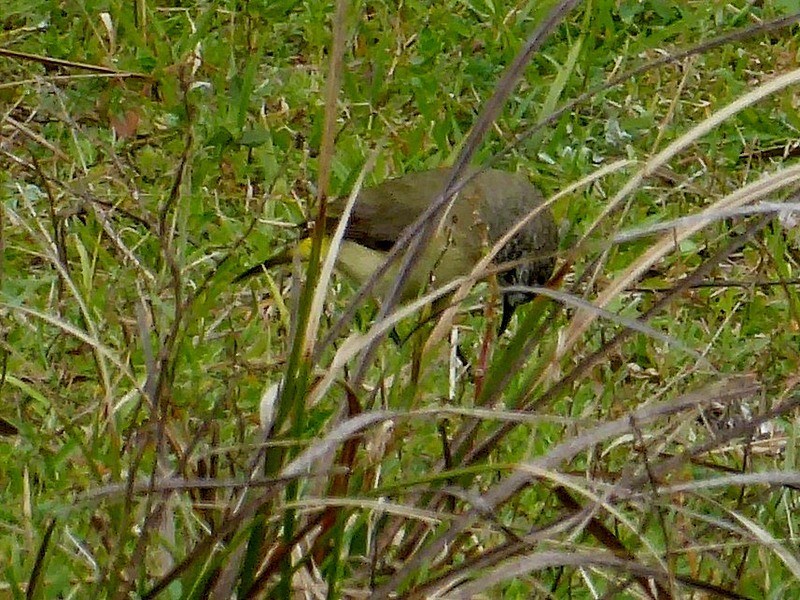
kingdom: Animalia
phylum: Chordata
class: Aves
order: Passeriformes
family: Acanthizidae
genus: Acanthiza
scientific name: Acanthiza chrysorrhoa
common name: Yellow-rumped thornbill
